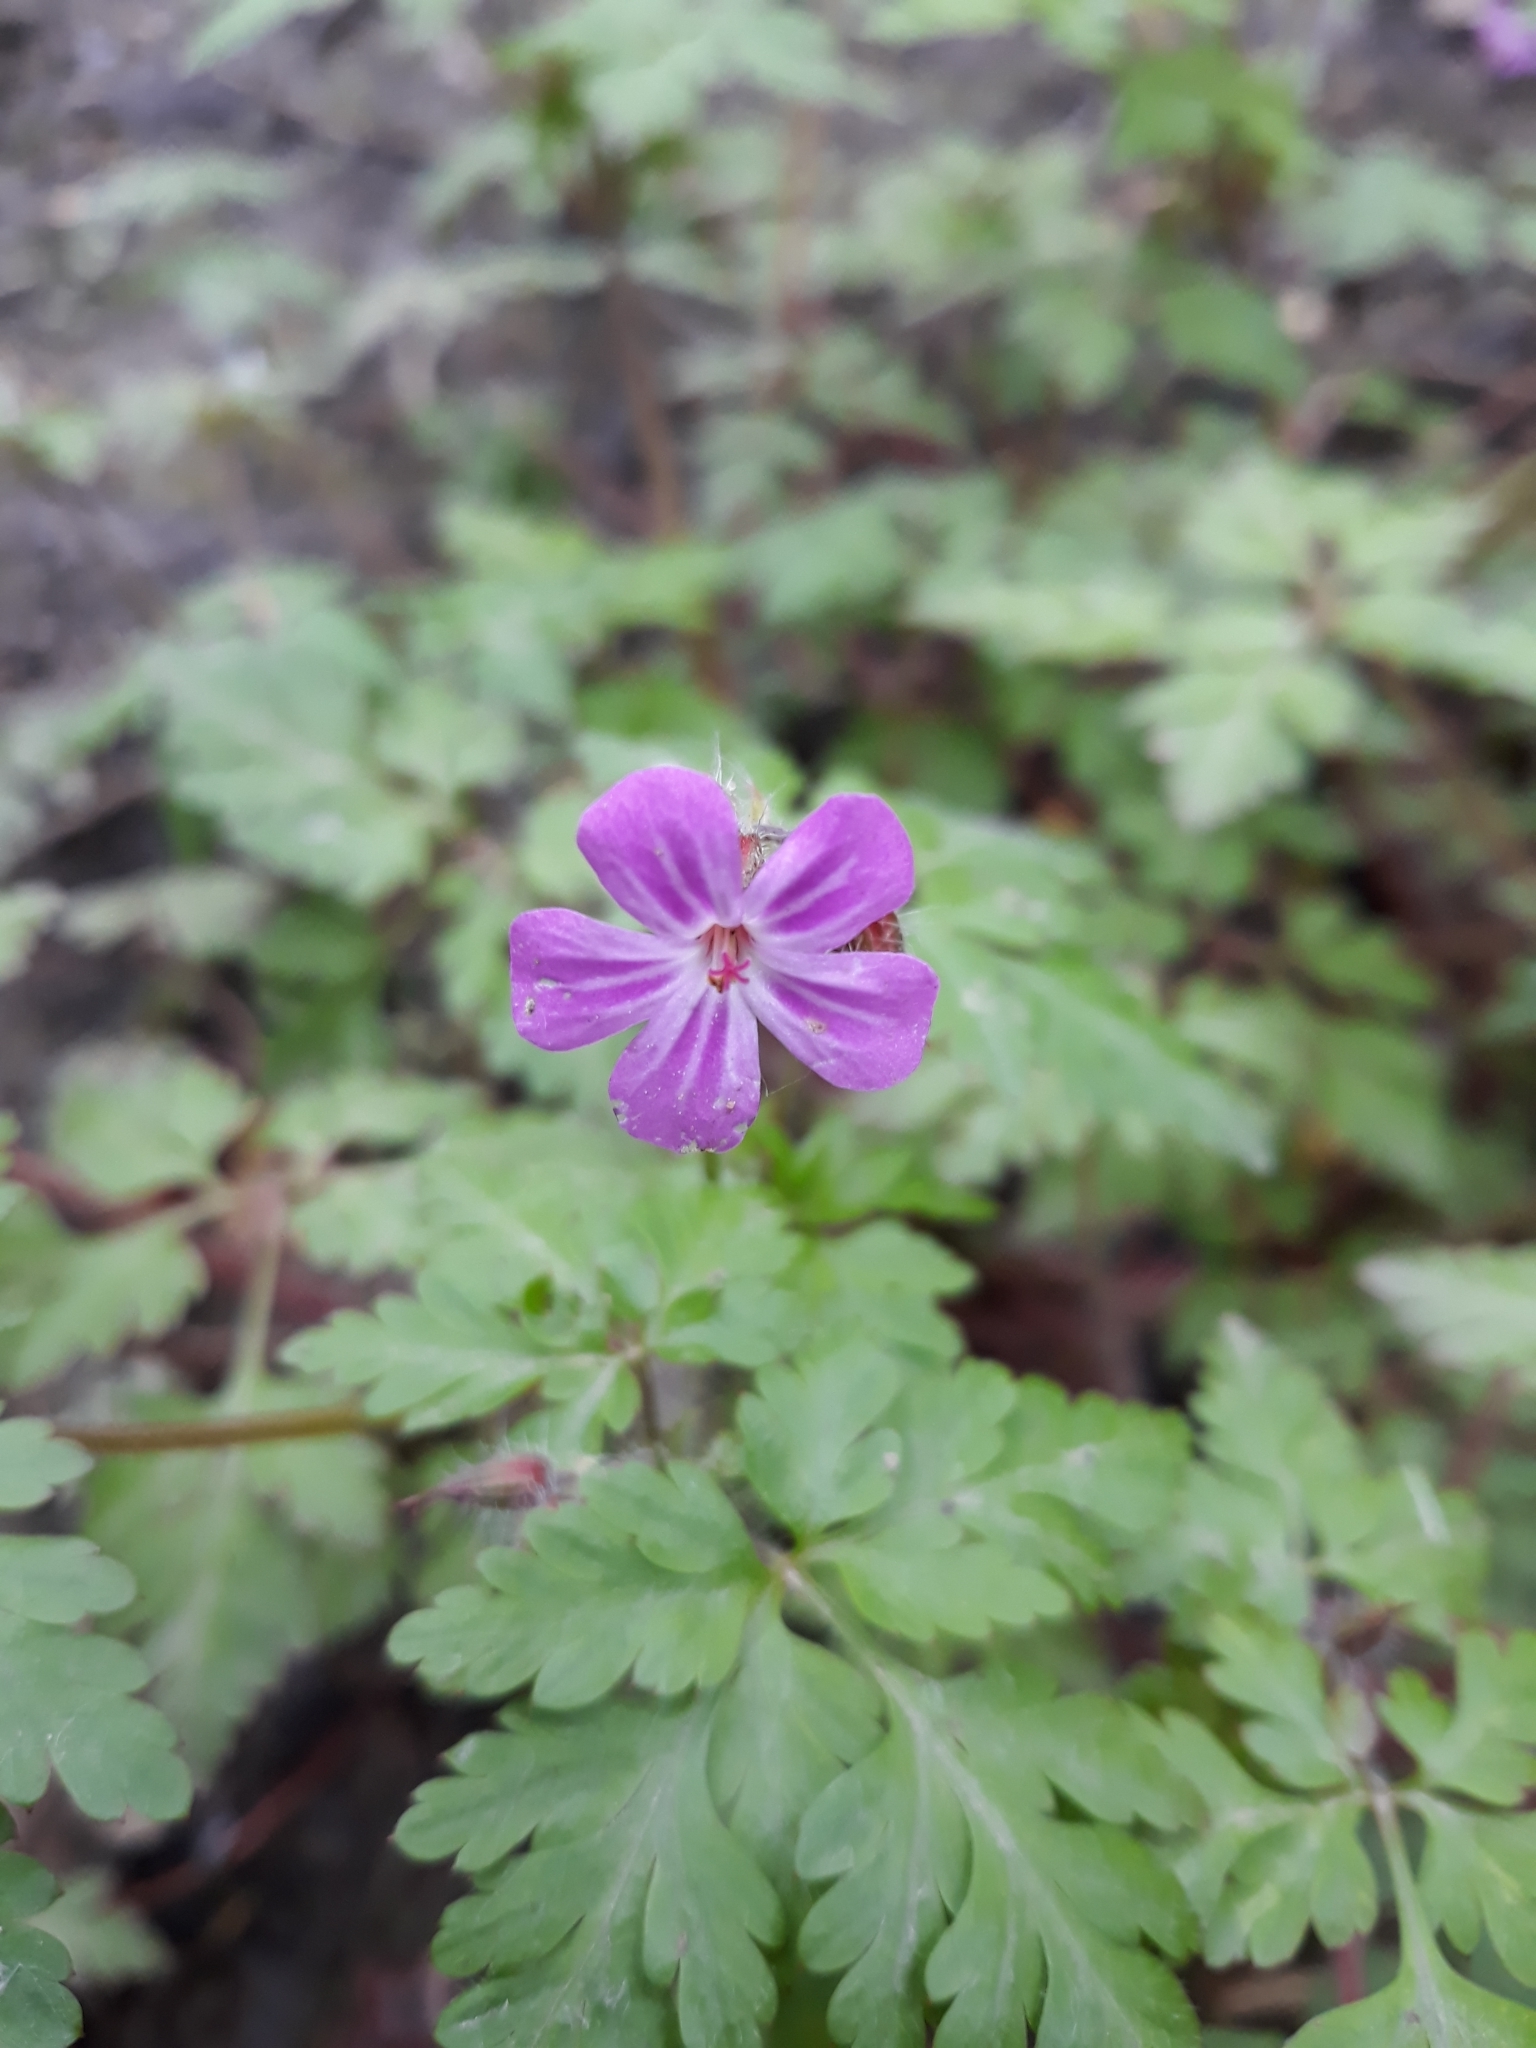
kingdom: Plantae
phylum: Tracheophyta
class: Magnoliopsida
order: Geraniales
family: Geraniaceae
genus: Geranium
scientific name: Geranium robertianum
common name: Herb-robert
